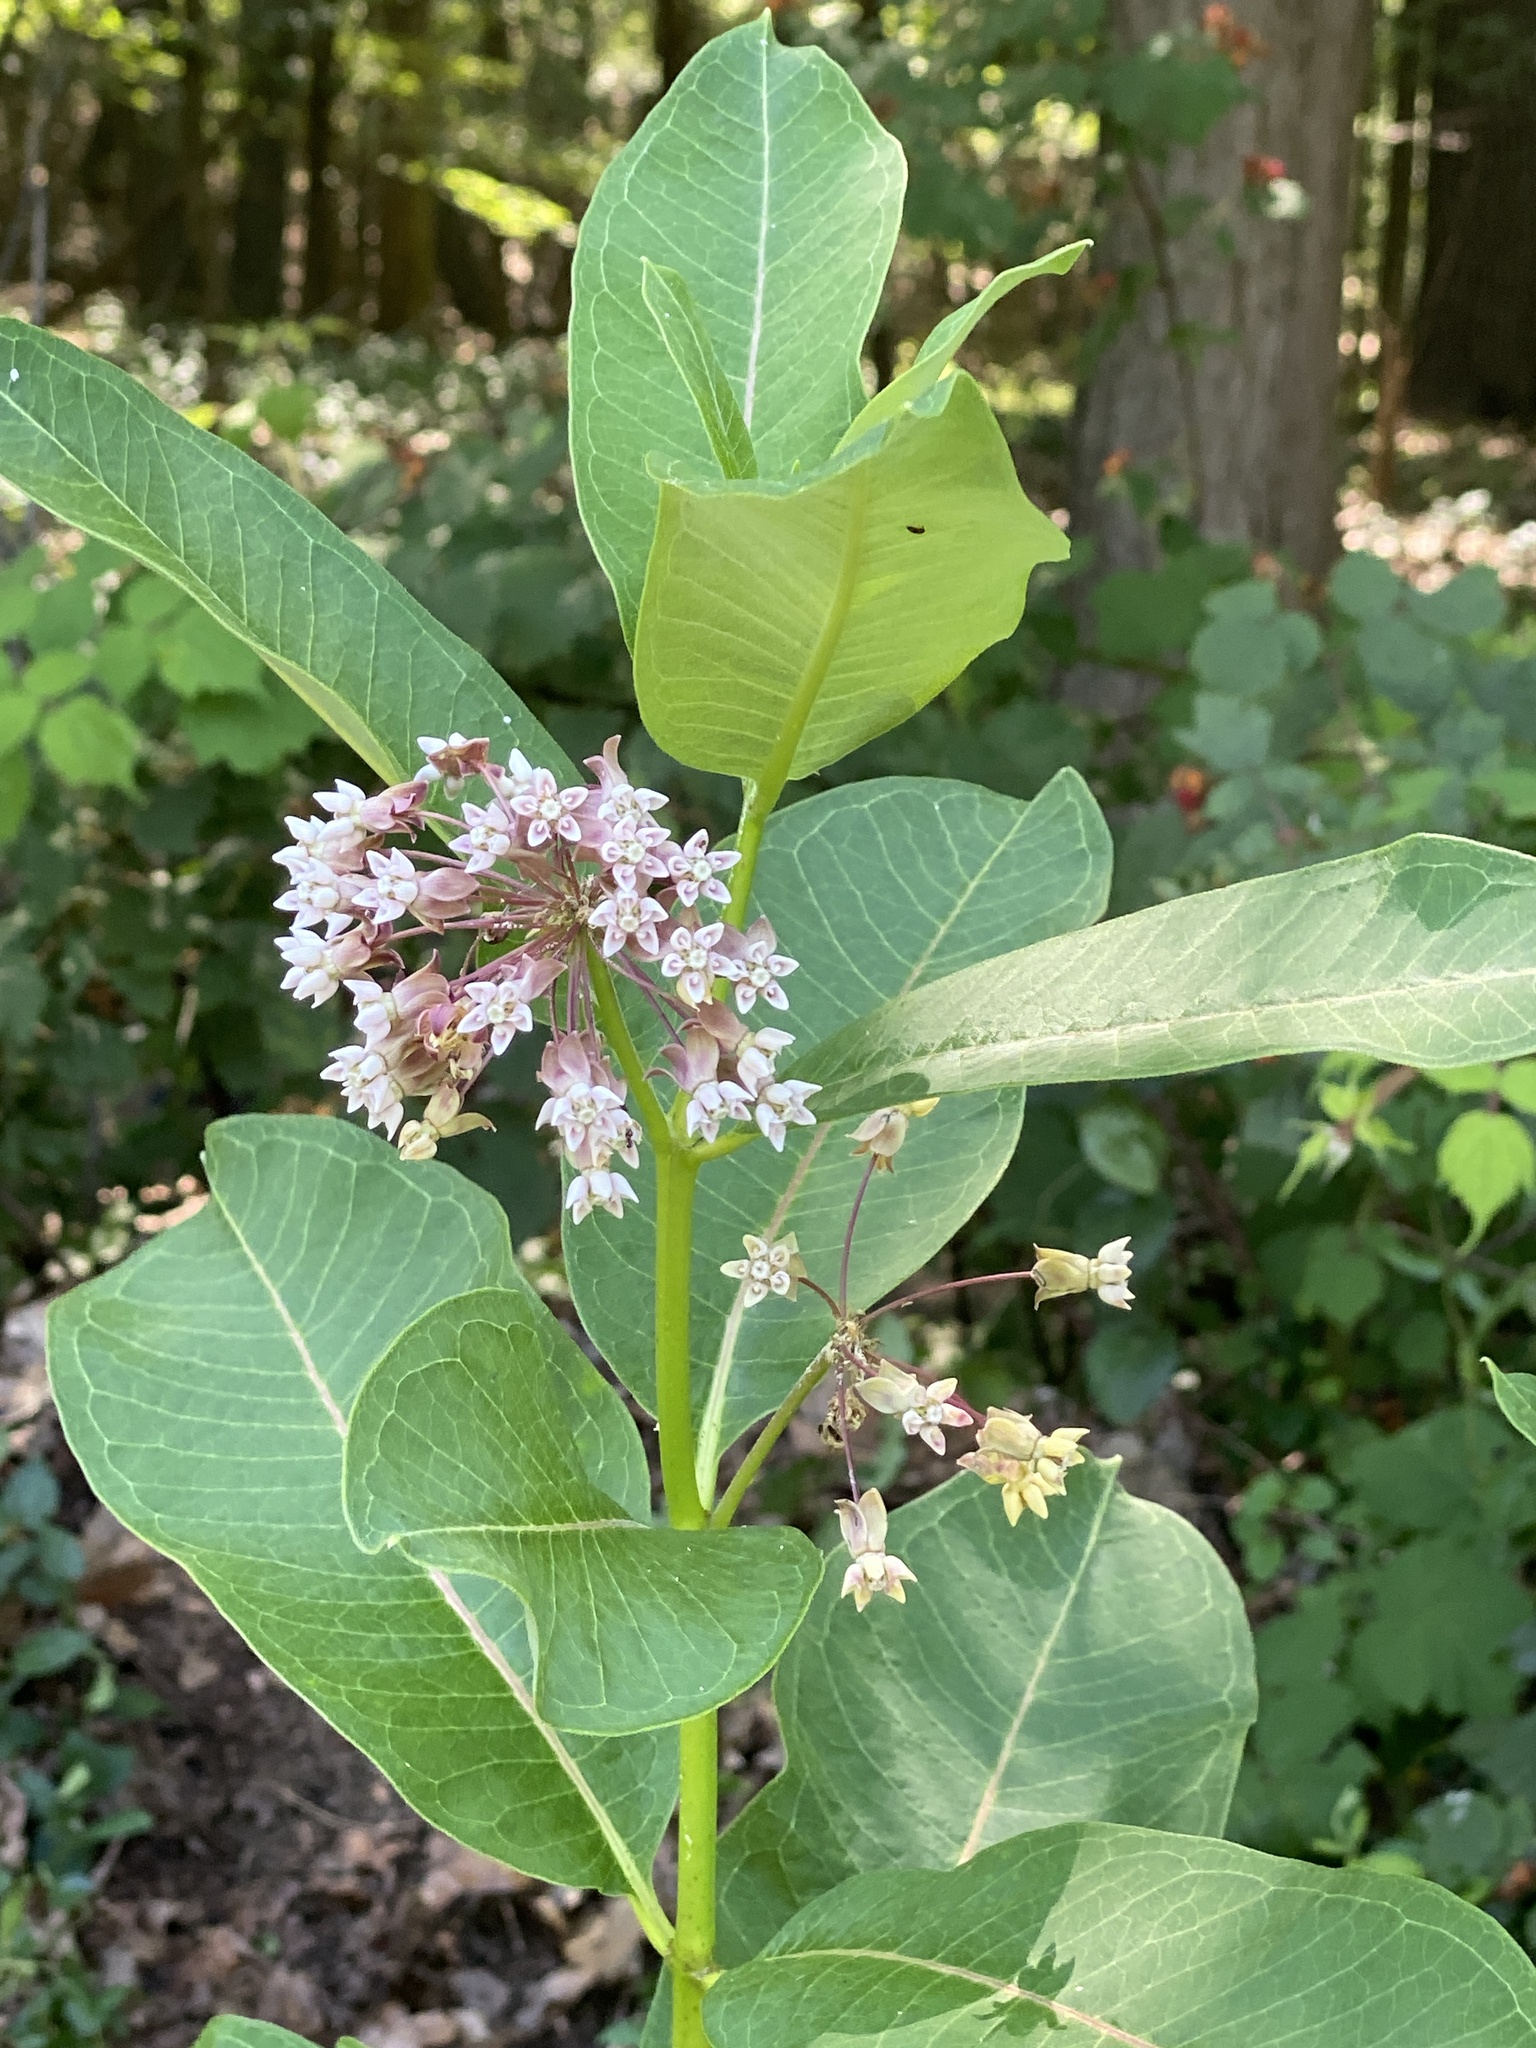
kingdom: Plantae
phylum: Tracheophyta
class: Magnoliopsida
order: Gentianales
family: Apocynaceae
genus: Asclepias
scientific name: Asclepias syriaca
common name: Common milkweed
